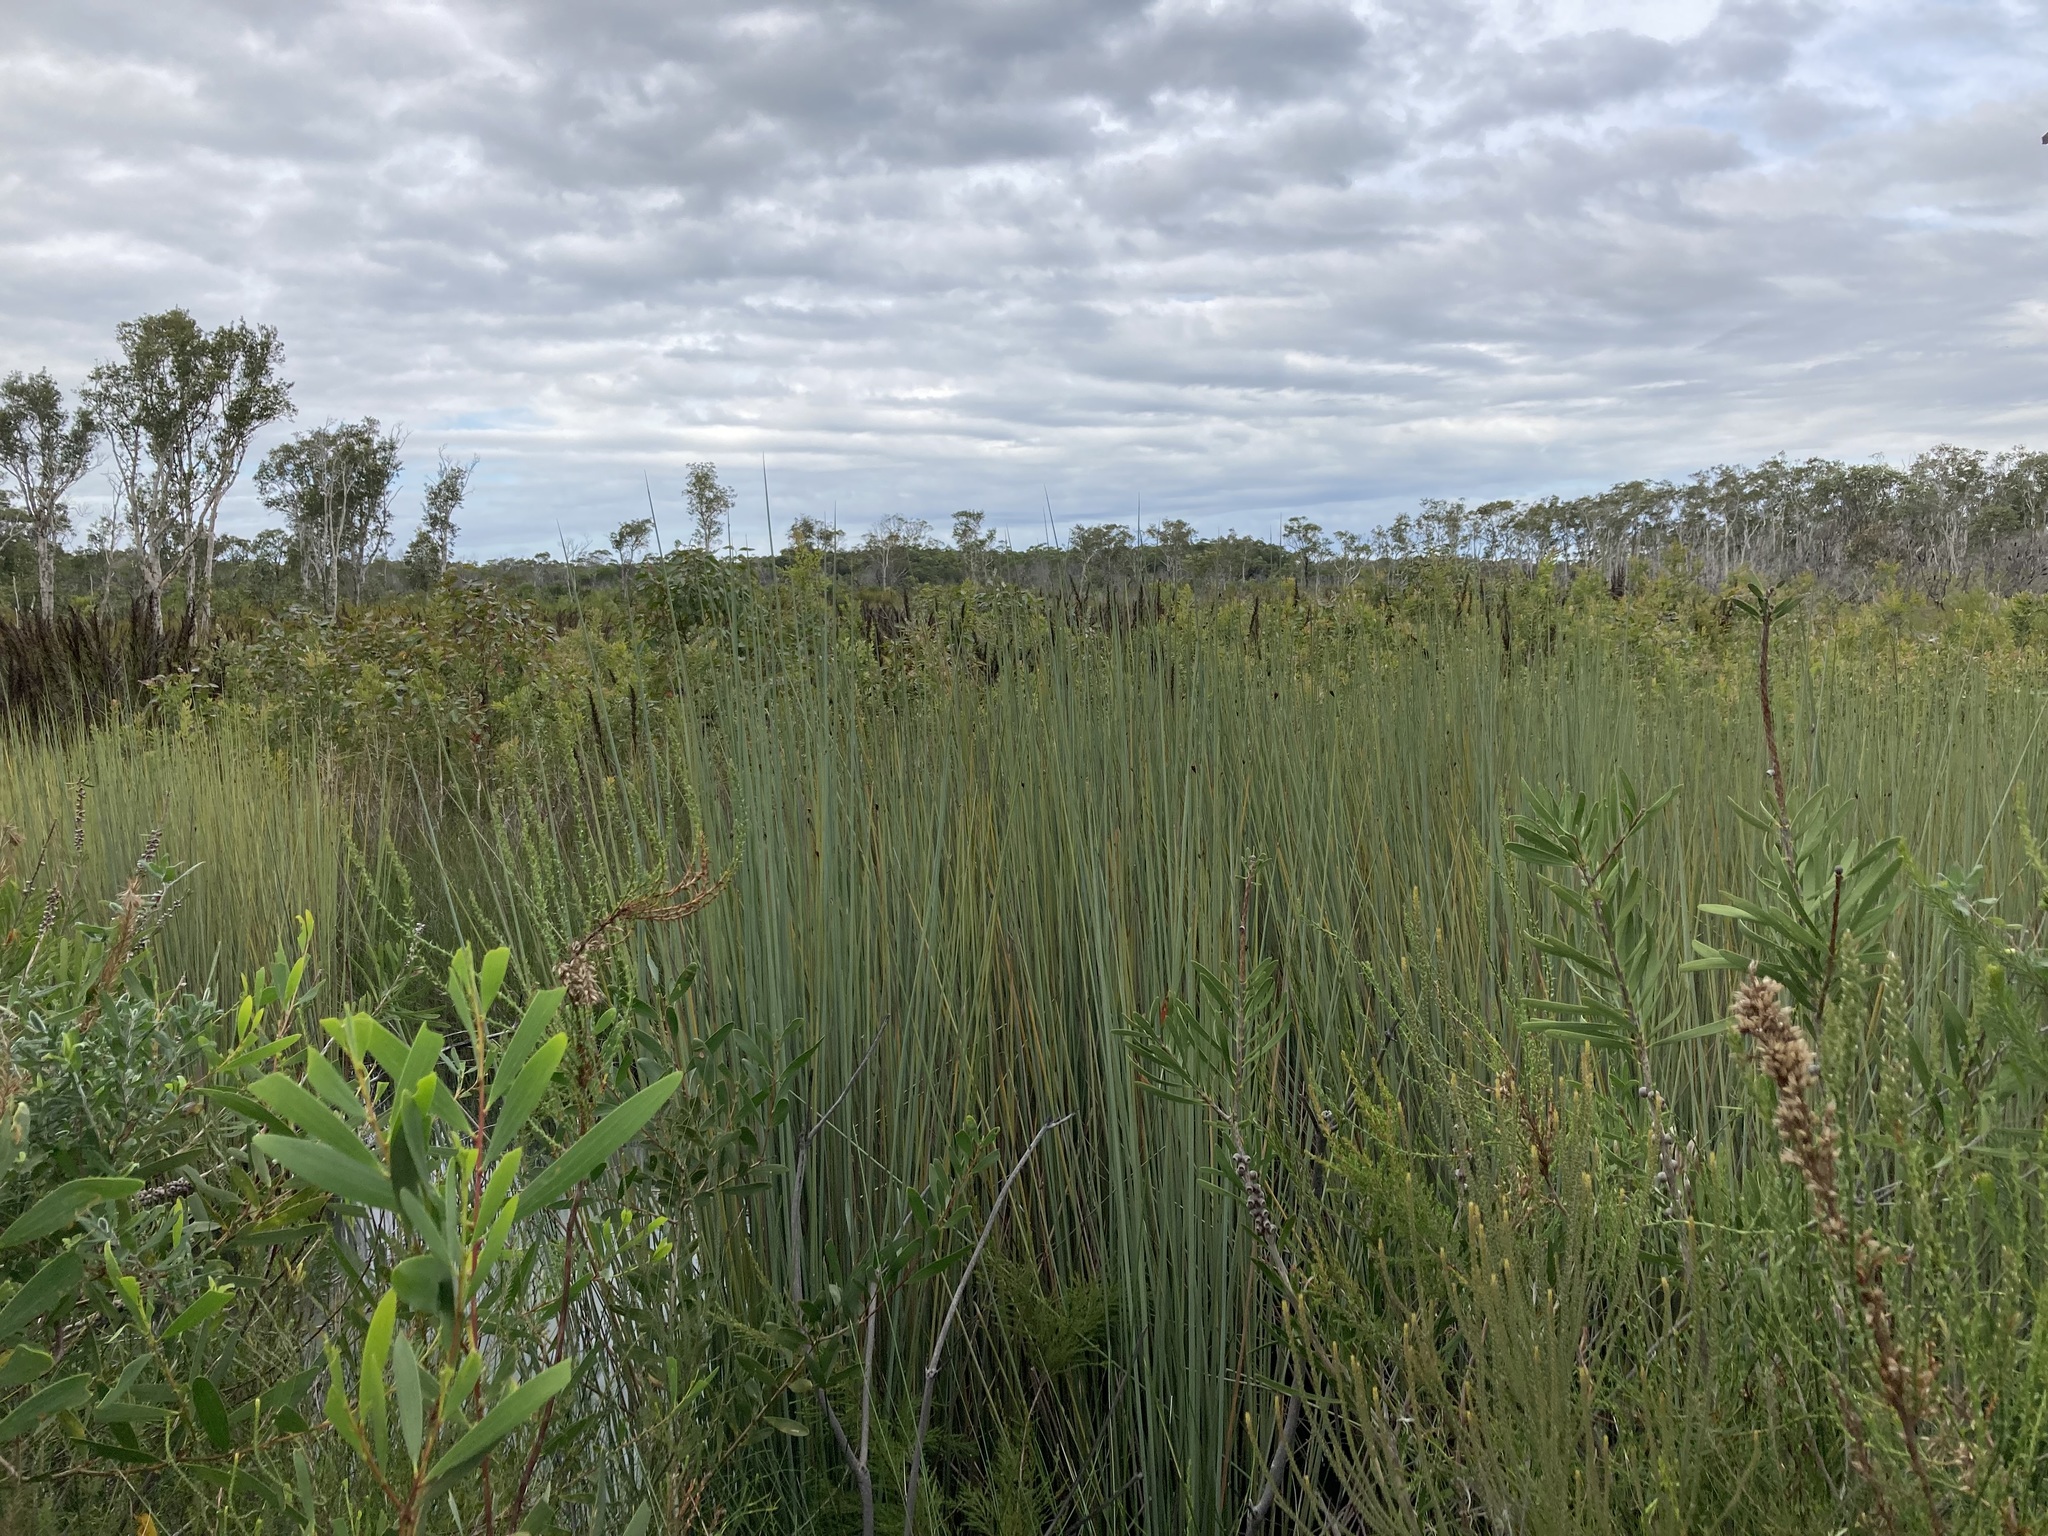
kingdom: Plantae
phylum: Tracheophyta
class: Liliopsida
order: Poales
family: Cyperaceae
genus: Lepironia
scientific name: Lepironia articulata
